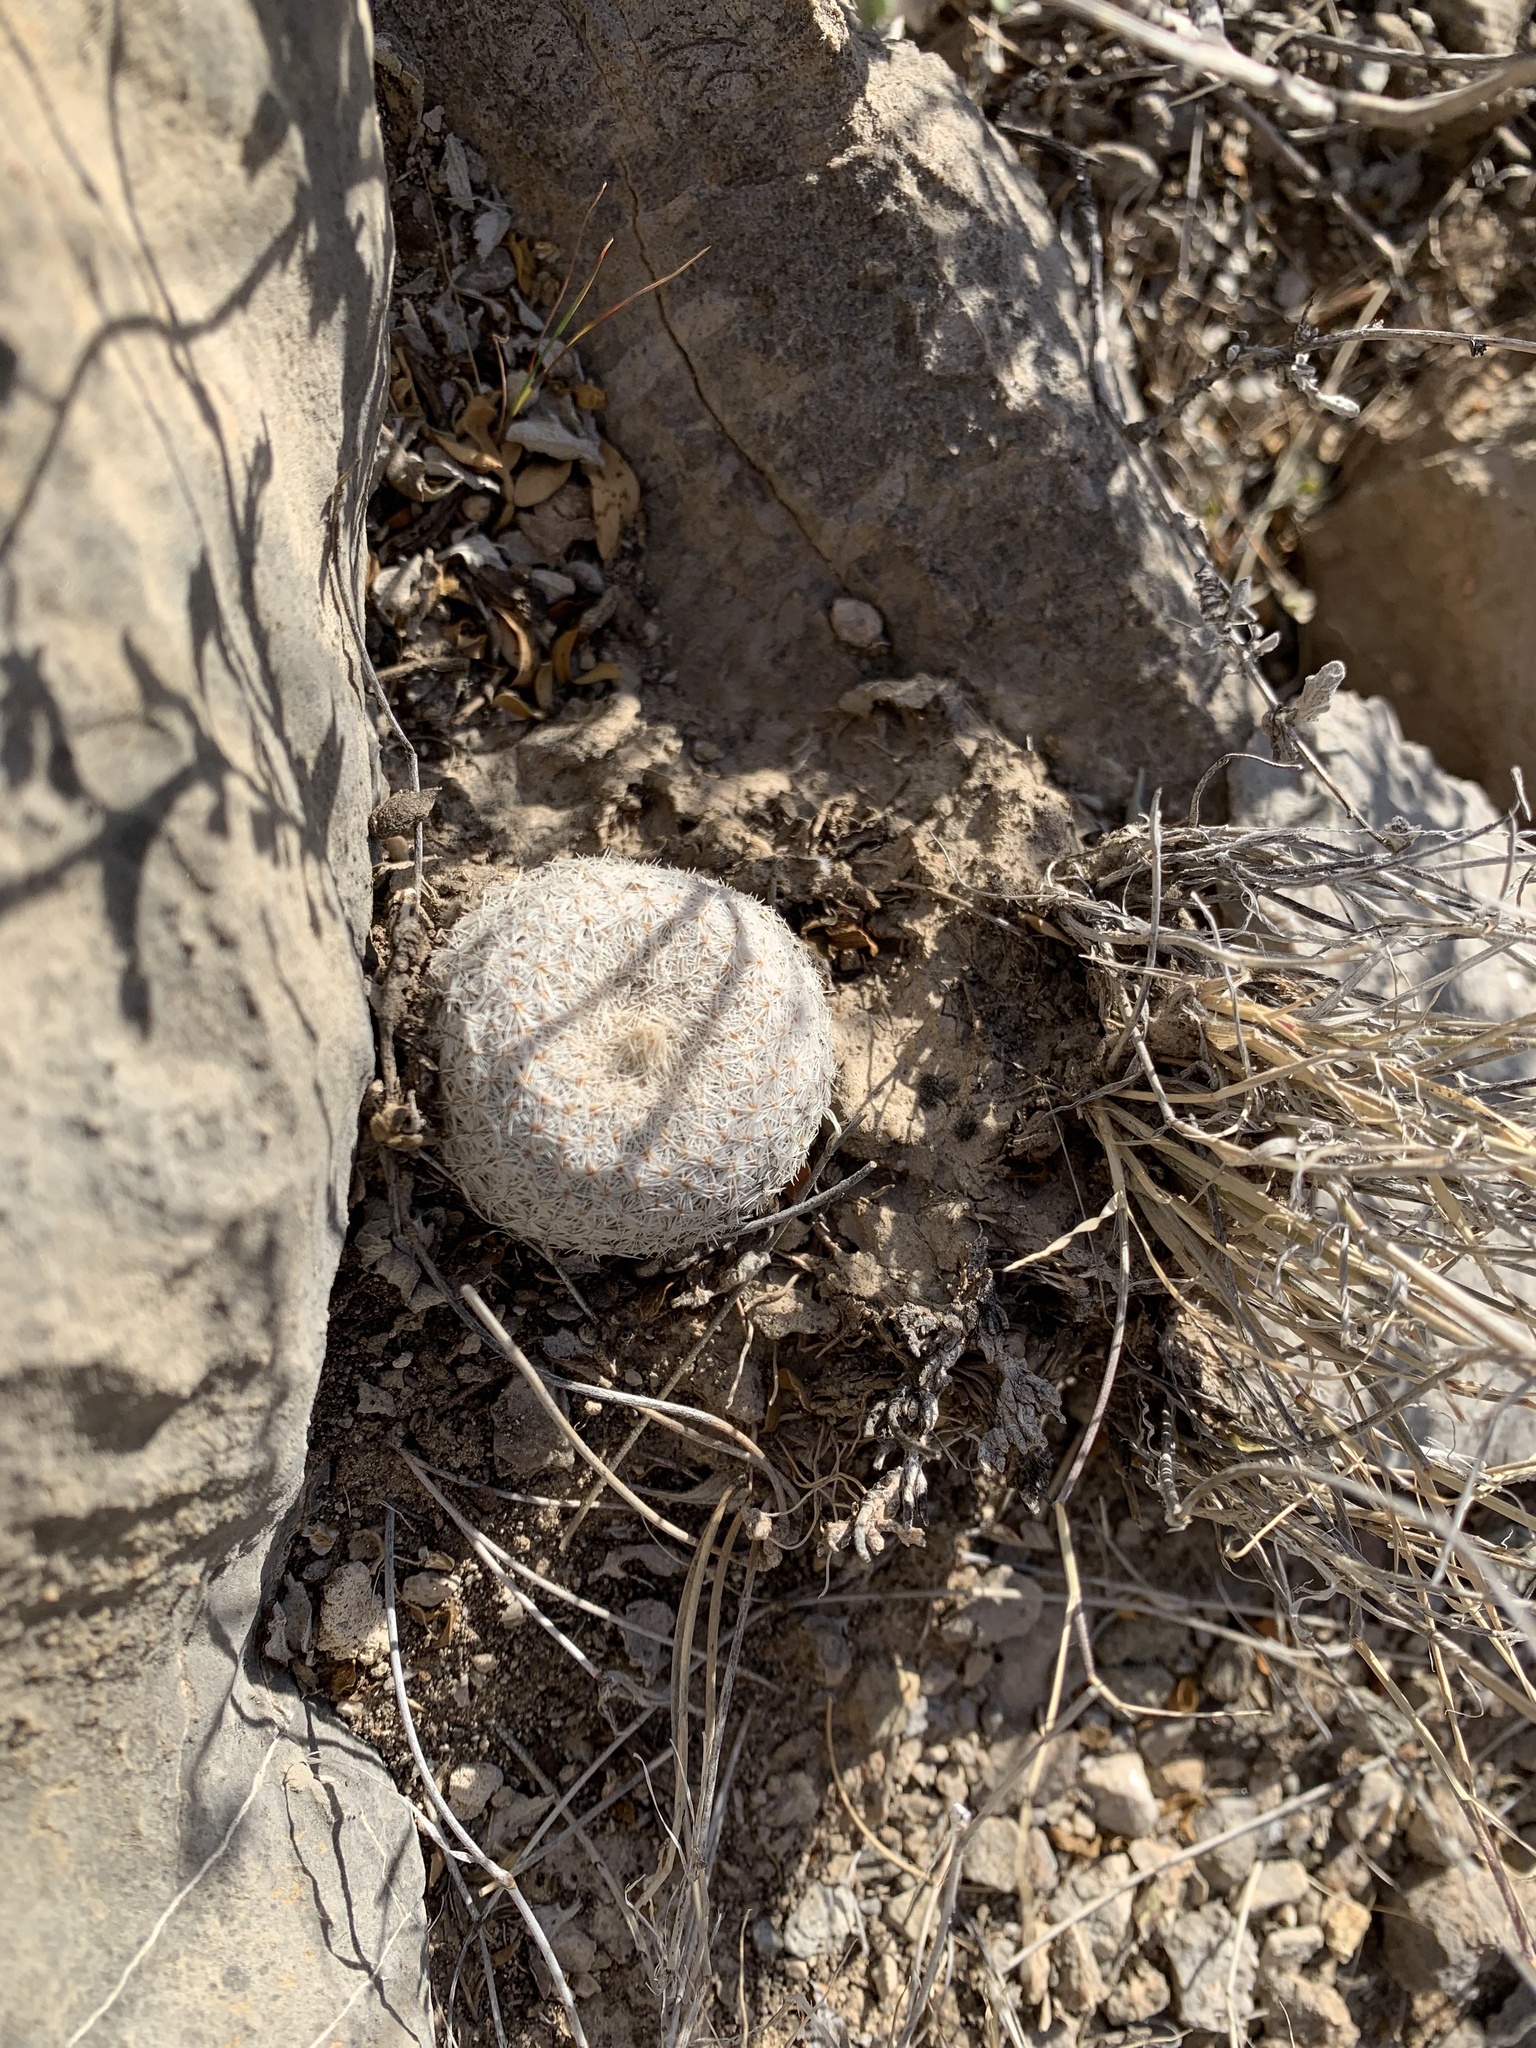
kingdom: Plantae
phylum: Tracheophyta
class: Magnoliopsida
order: Caryophyllales
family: Cactaceae
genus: Epithelantha
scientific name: Epithelantha micromeris
